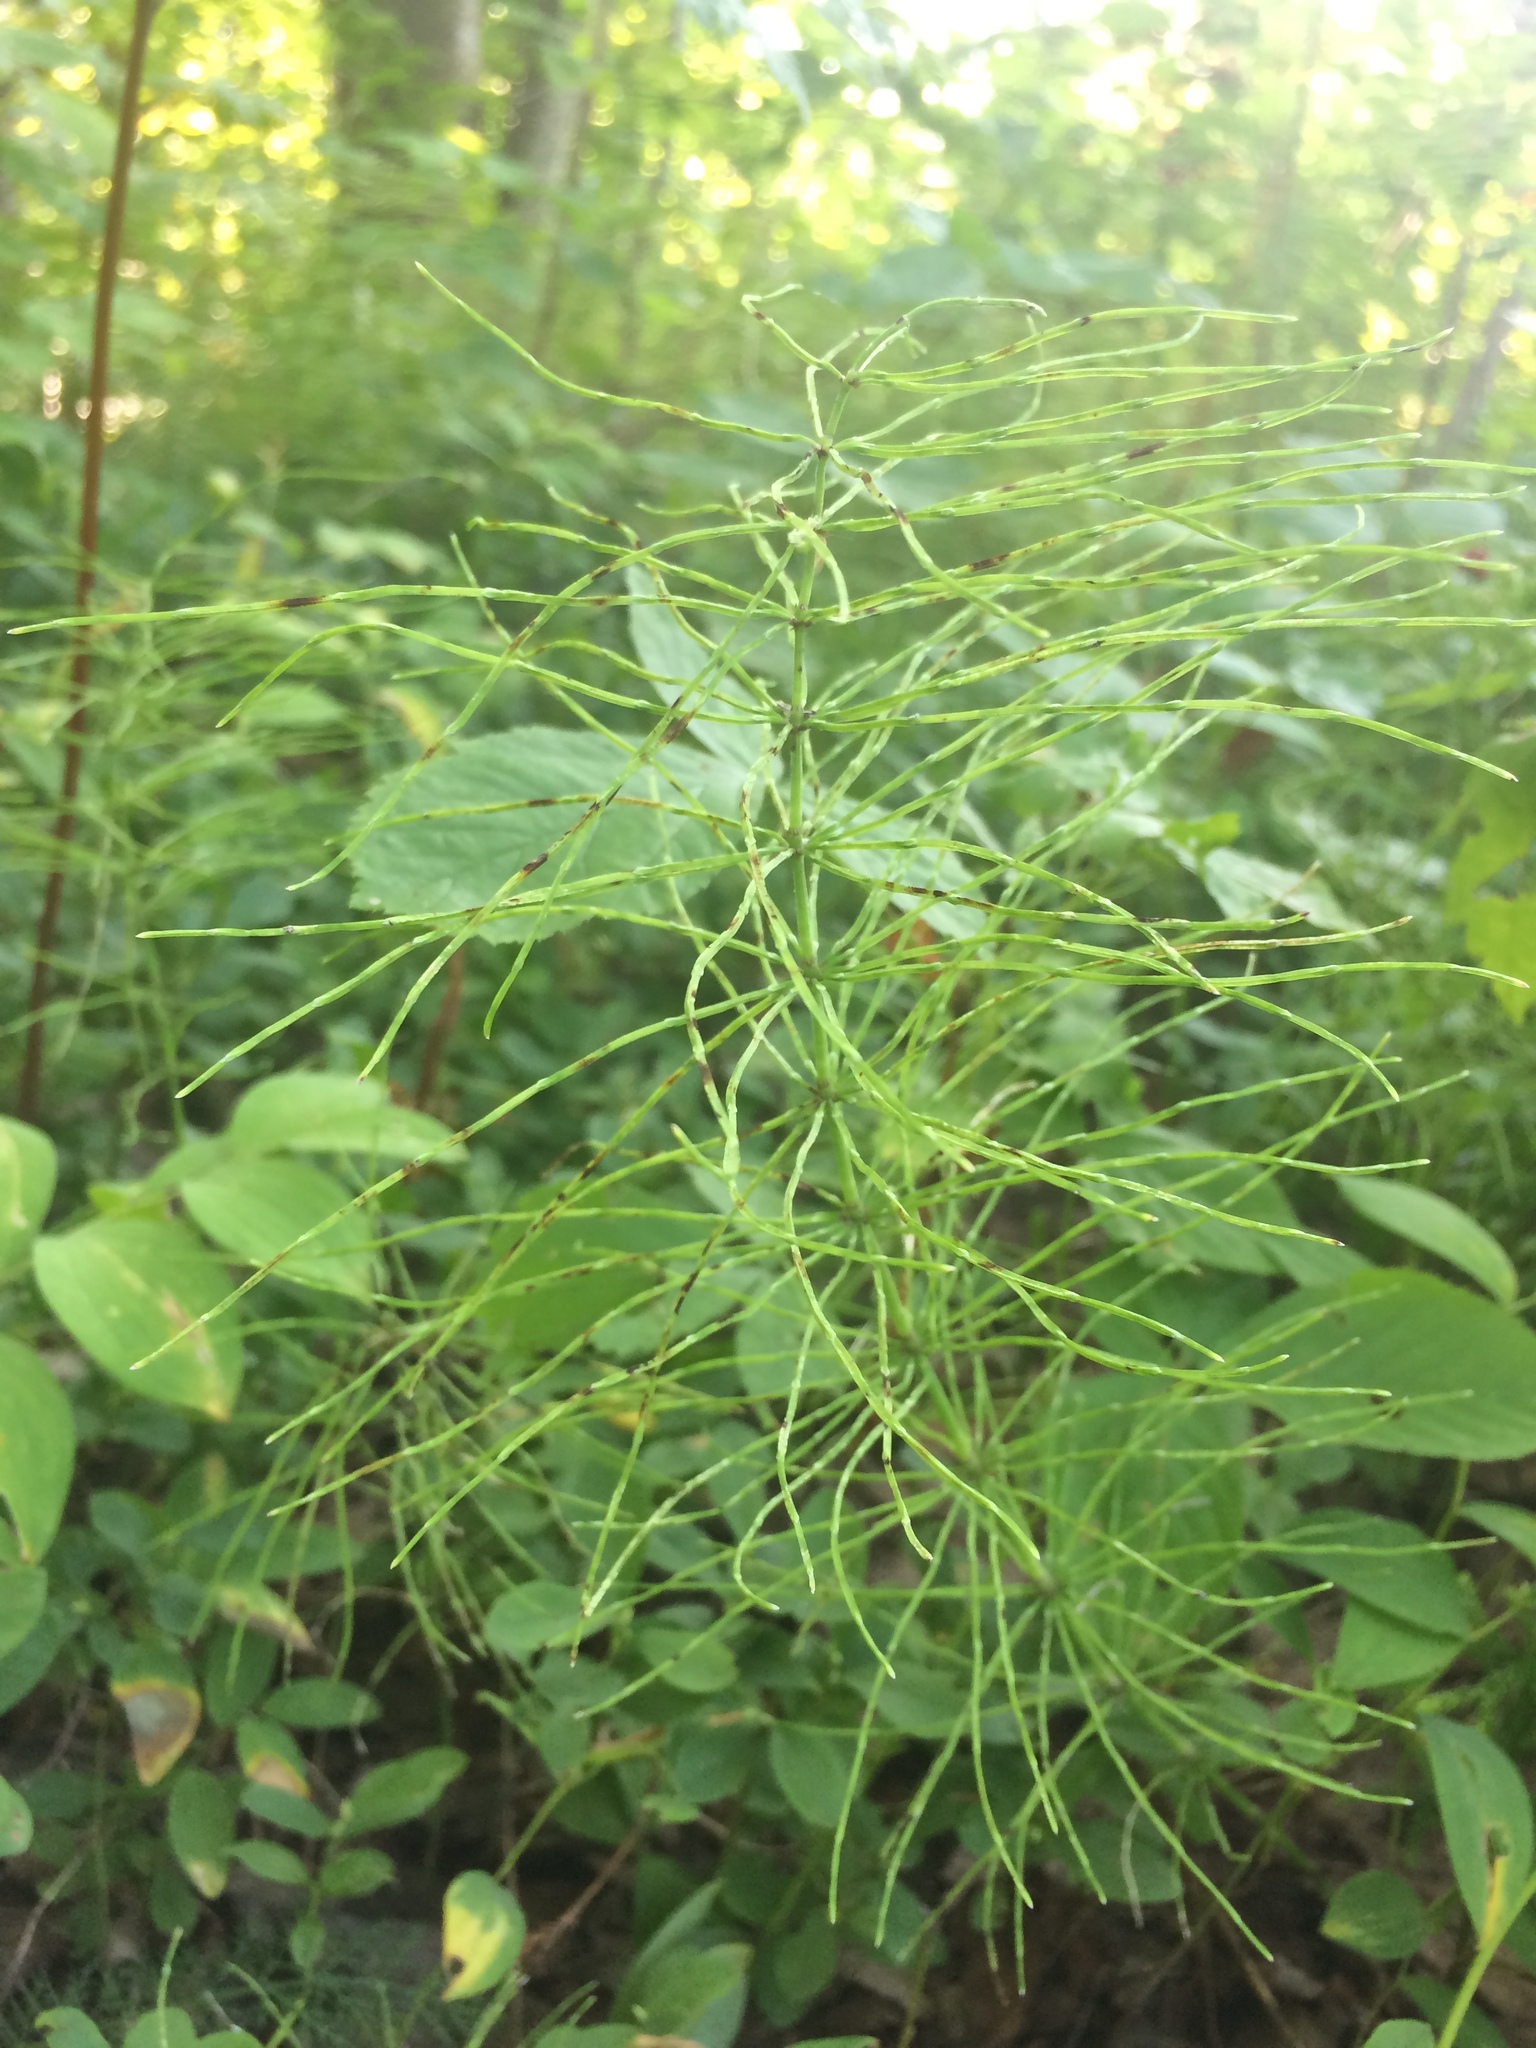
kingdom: Plantae
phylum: Tracheophyta
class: Polypodiopsida
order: Equisetales
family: Equisetaceae
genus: Equisetum
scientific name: Equisetum pratense
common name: Meadow horsetail
